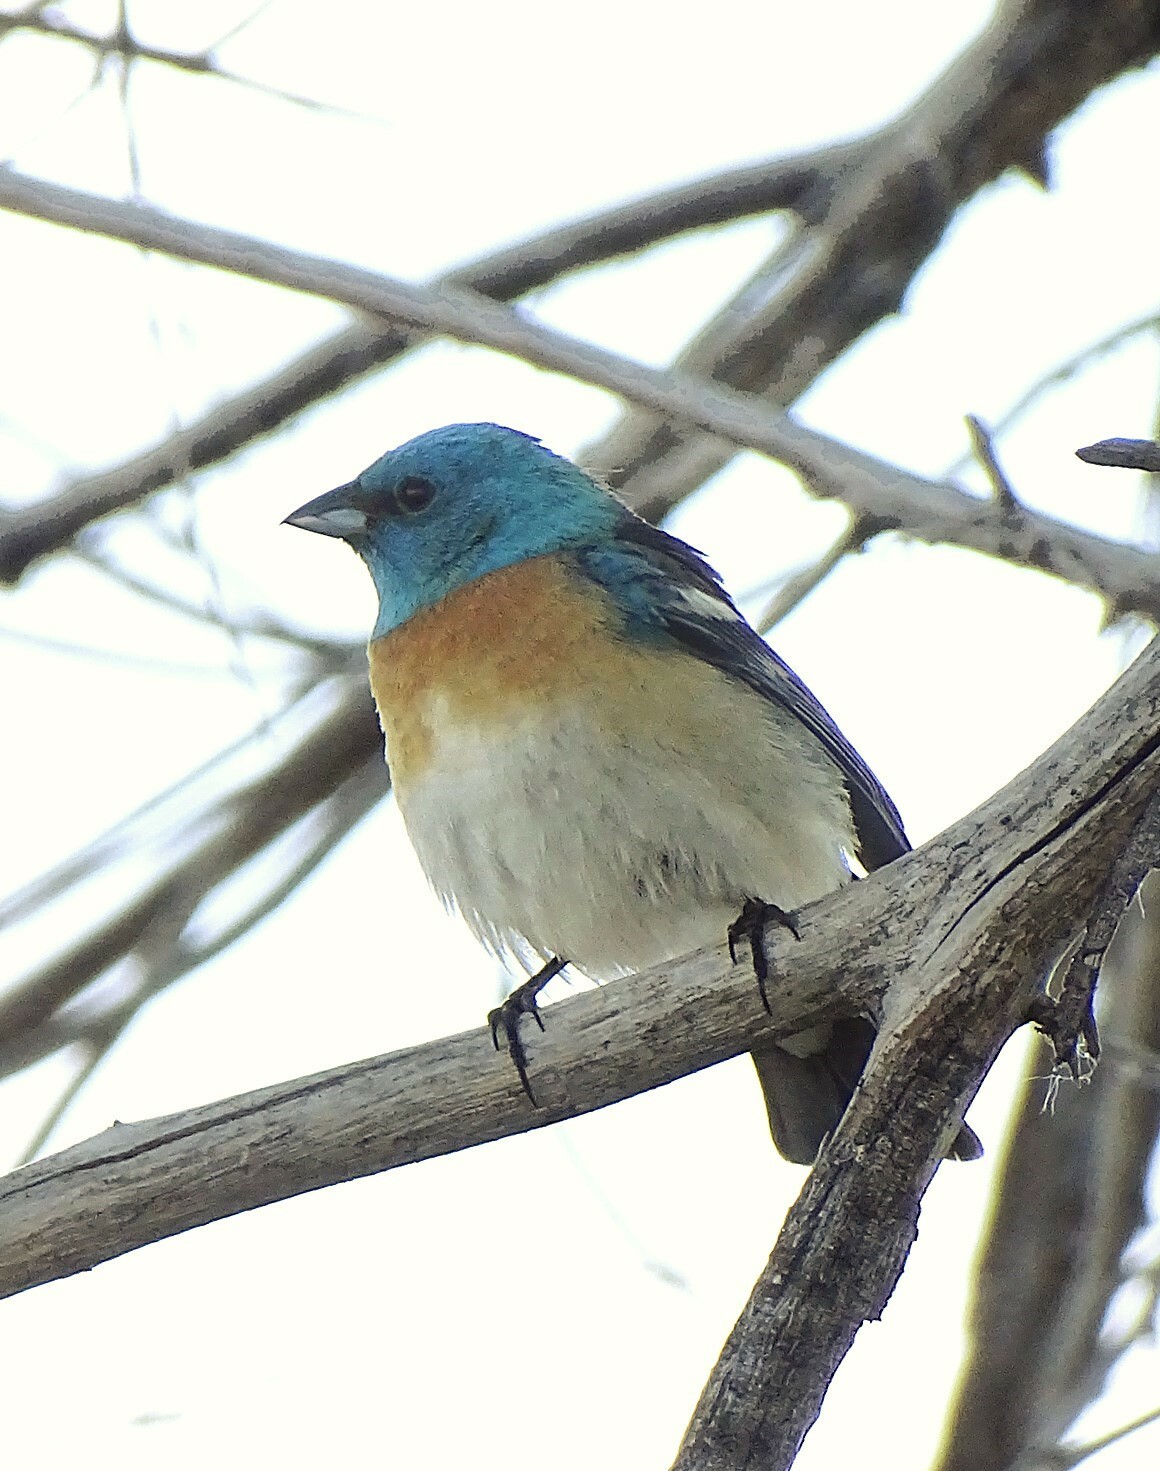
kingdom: Animalia
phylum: Chordata
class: Aves
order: Passeriformes
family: Cardinalidae
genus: Passerina
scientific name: Passerina amoena
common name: Lazuli bunting
